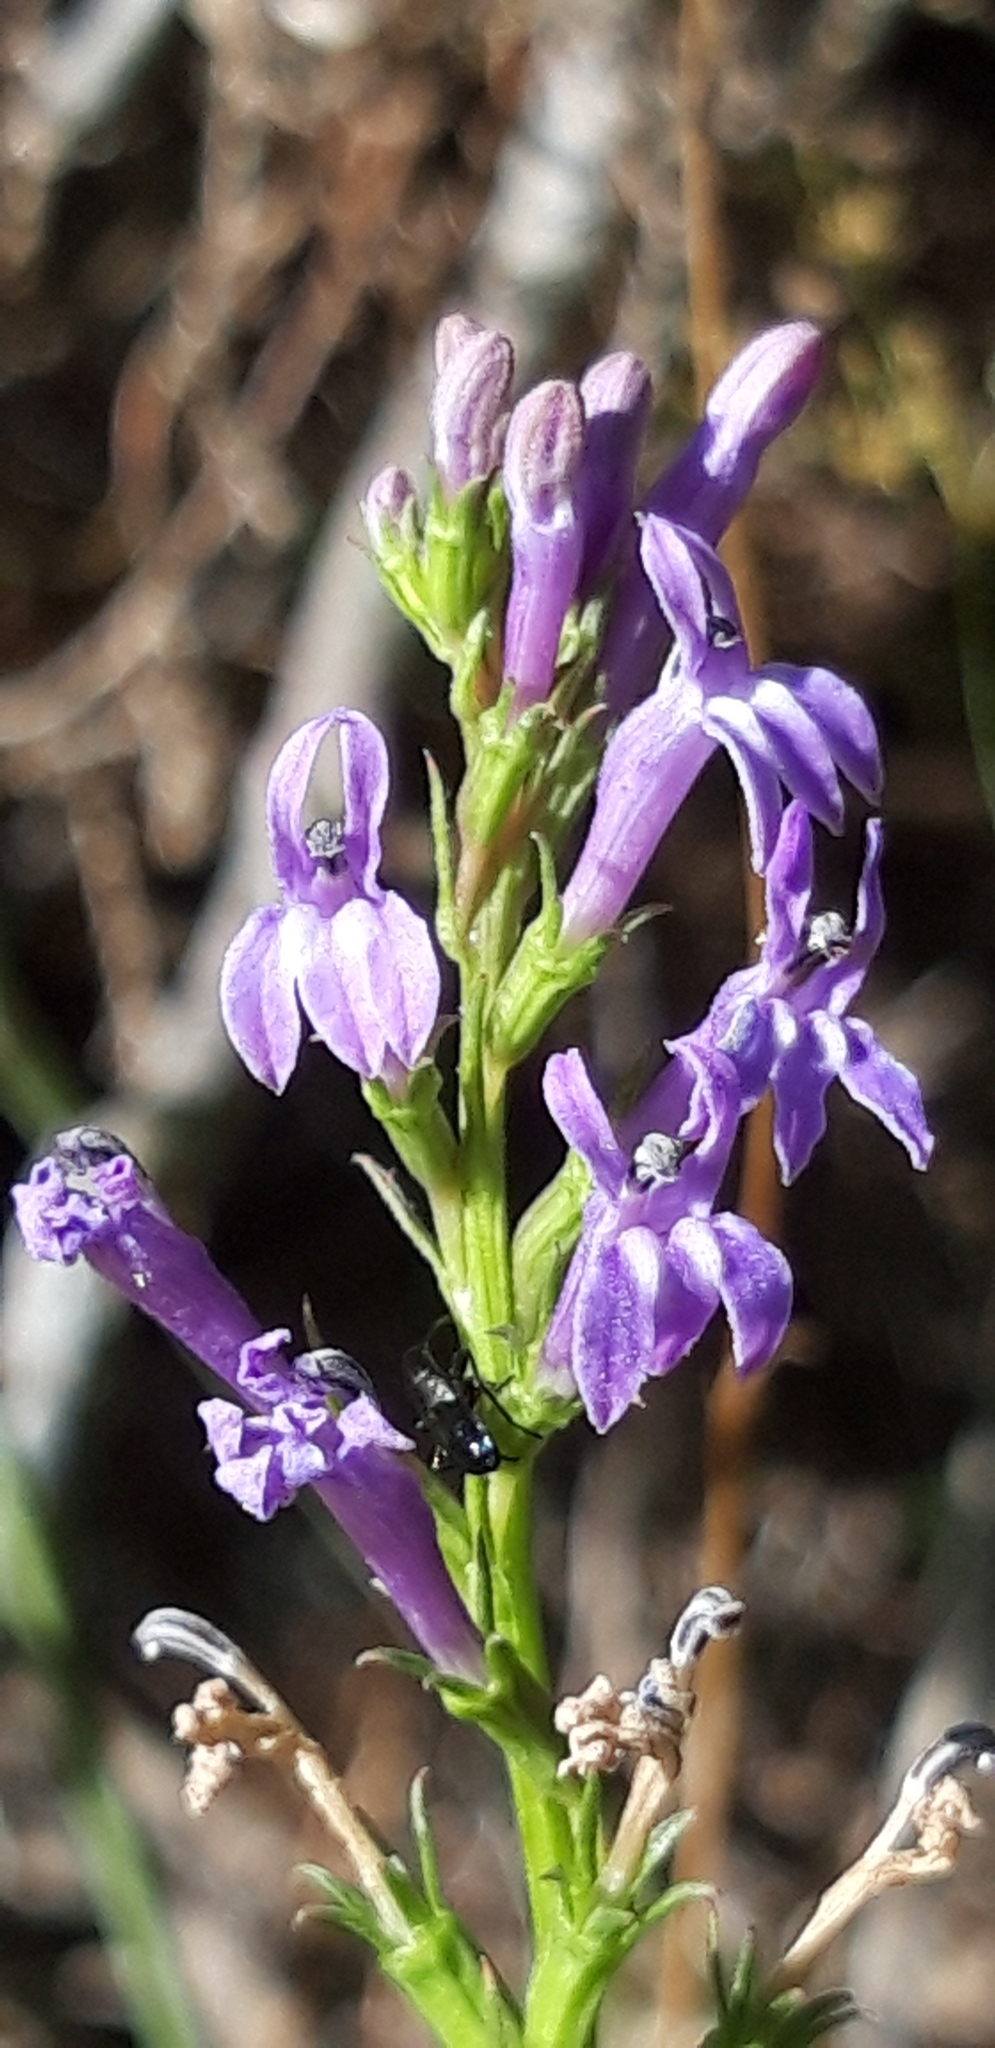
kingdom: Plantae
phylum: Tracheophyta
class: Magnoliopsida
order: Asterales
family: Campanulaceae
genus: Lobelia
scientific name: Lobelia urens
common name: Heath lobelia
